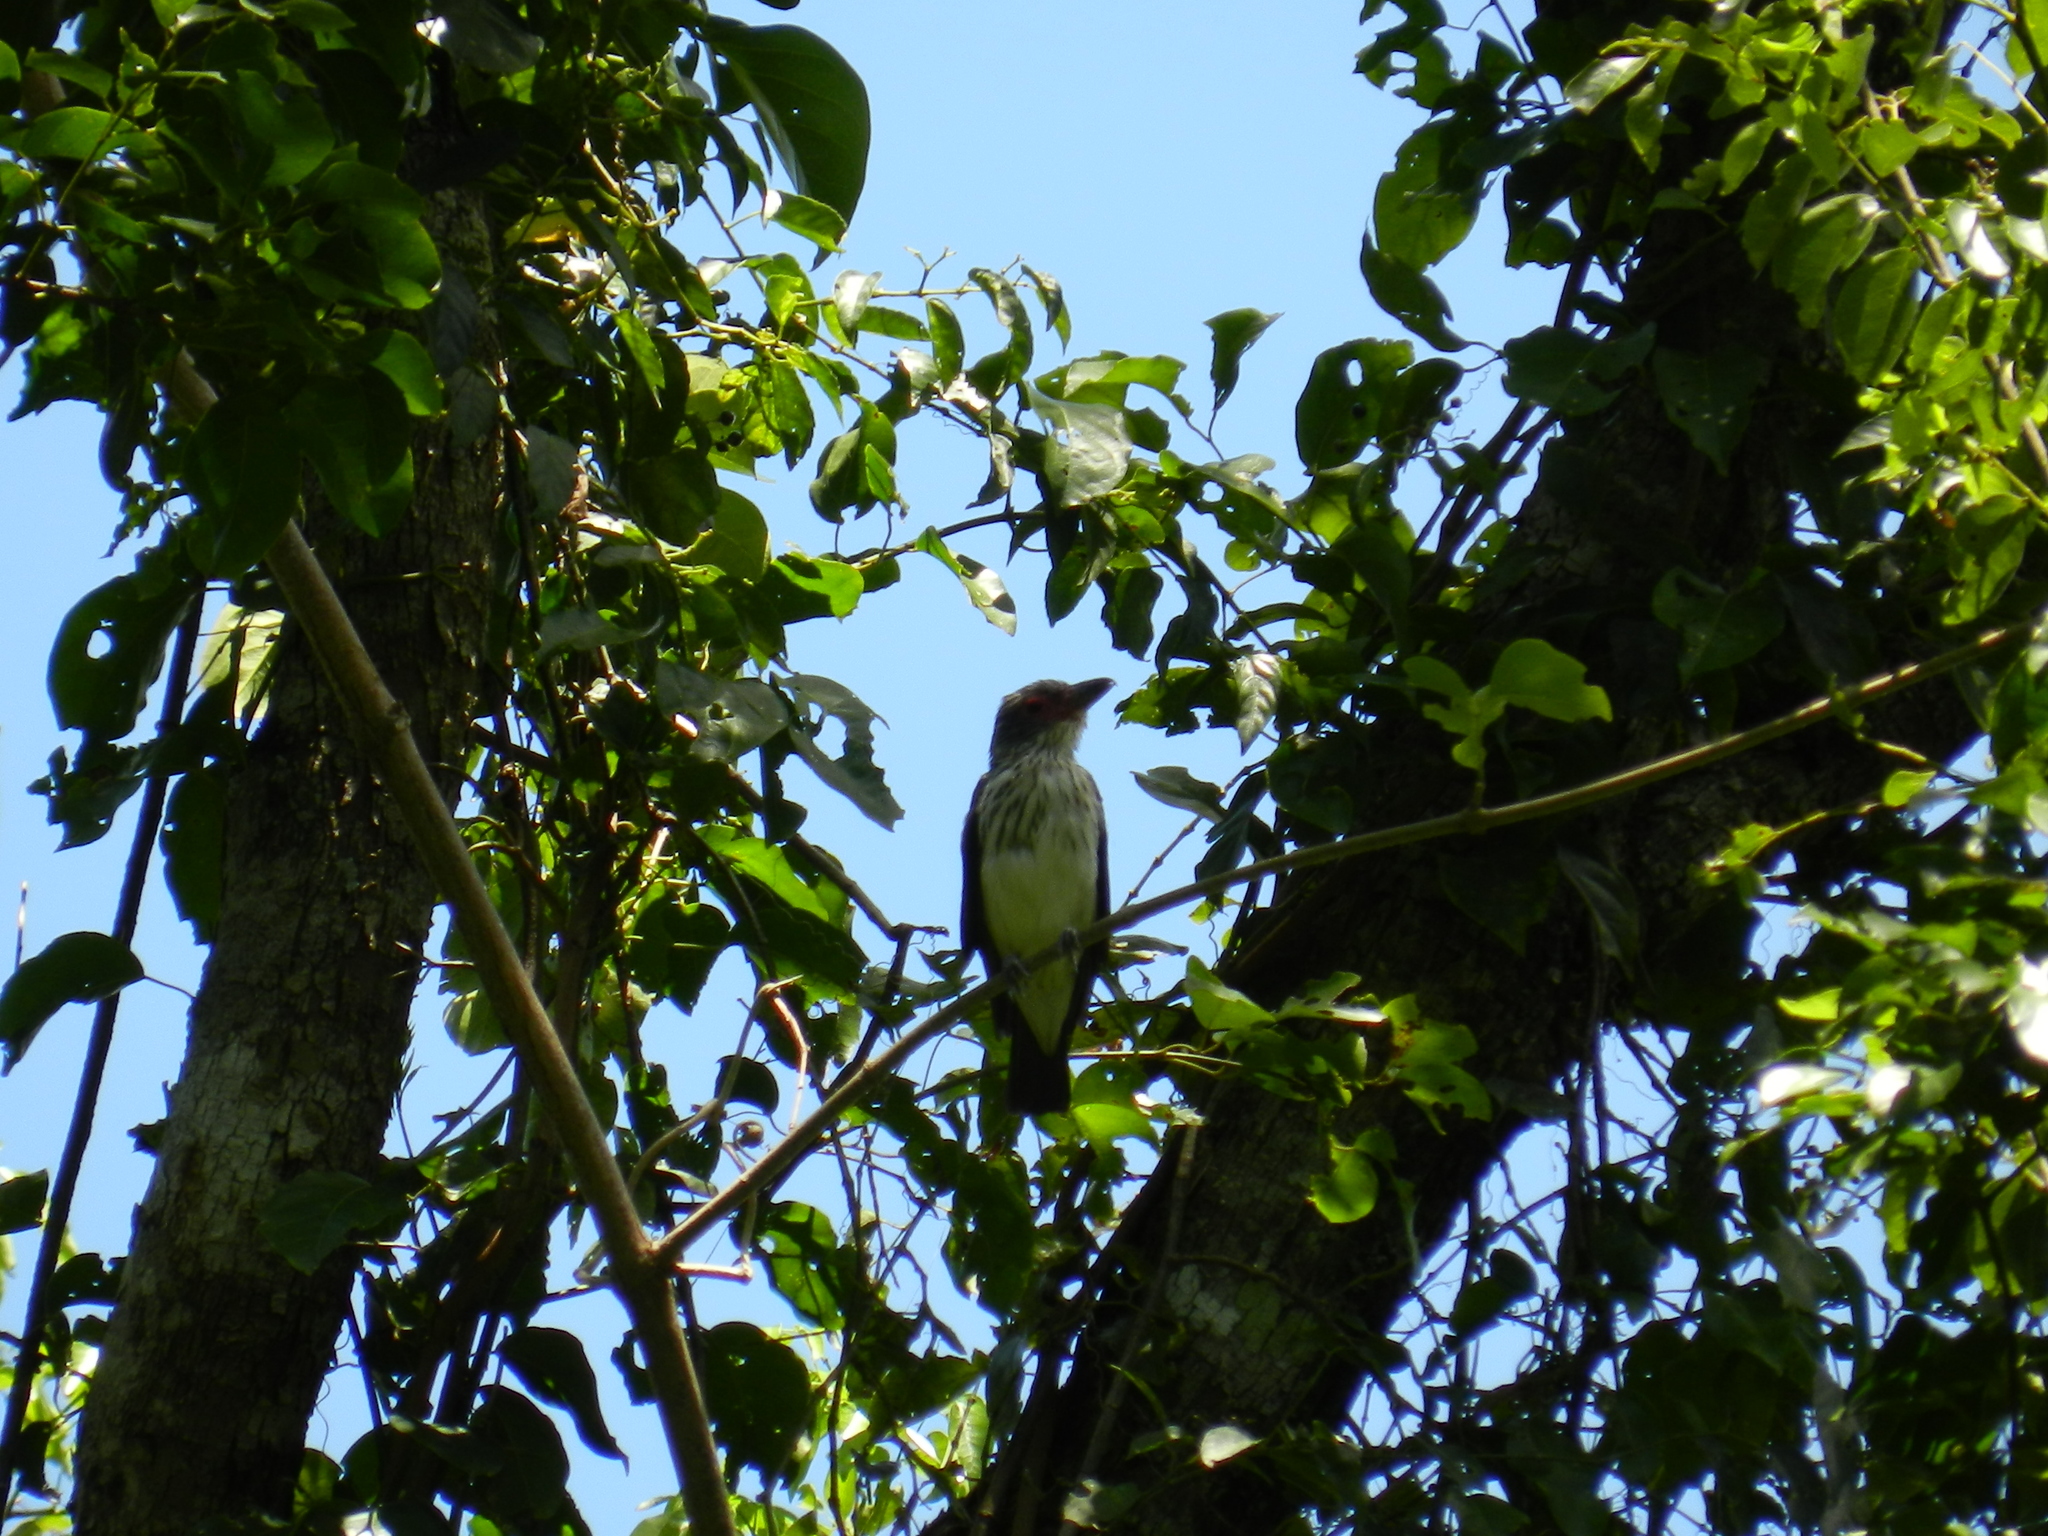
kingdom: Animalia
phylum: Chordata
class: Aves
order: Passeriformes
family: Cotingidae
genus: Tityra
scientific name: Tityra cayana
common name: Black-tailed tityra
